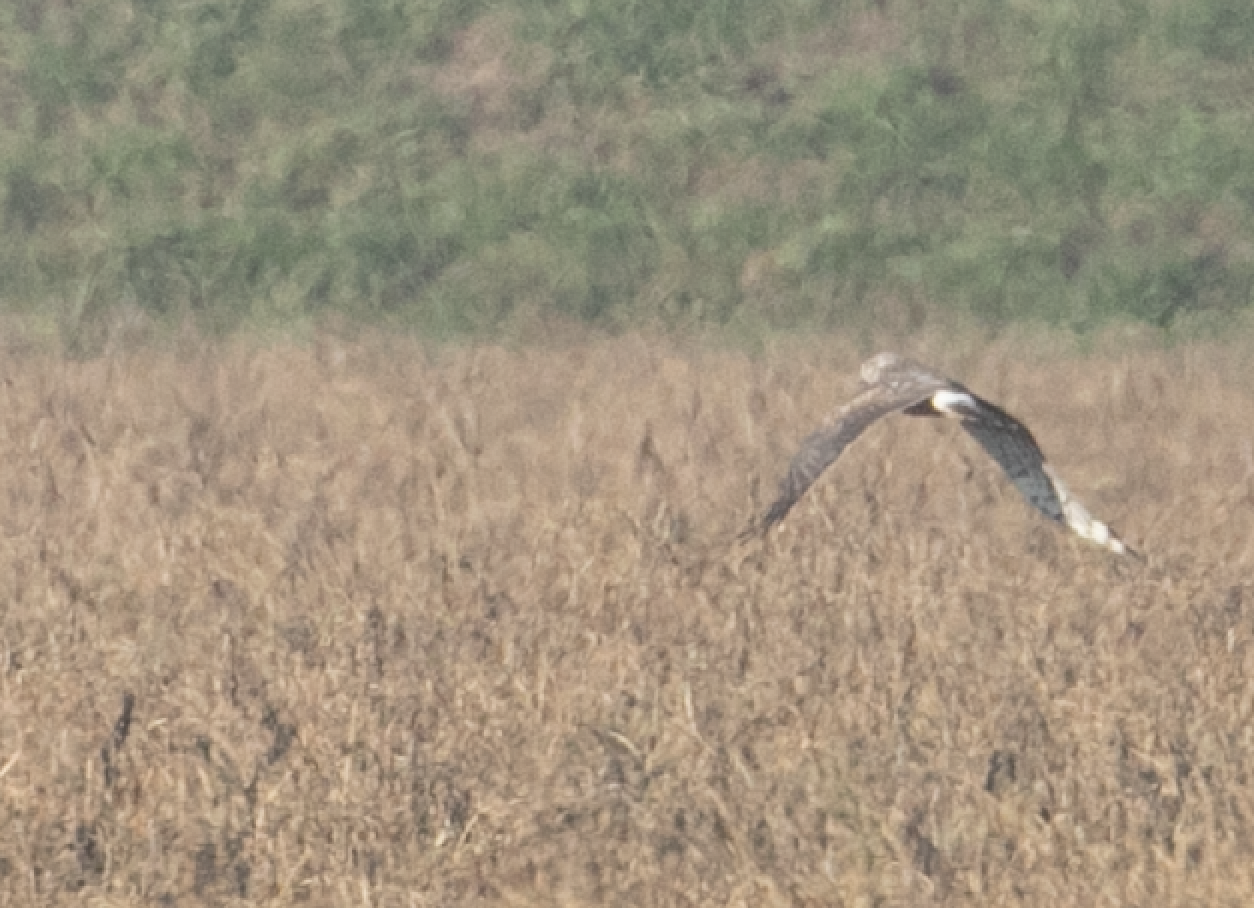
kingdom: Animalia
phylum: Chordata
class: Aves
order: Accipitriformes
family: Accipitridae
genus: Circus
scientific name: Circus cyaneus
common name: Hen harrier
